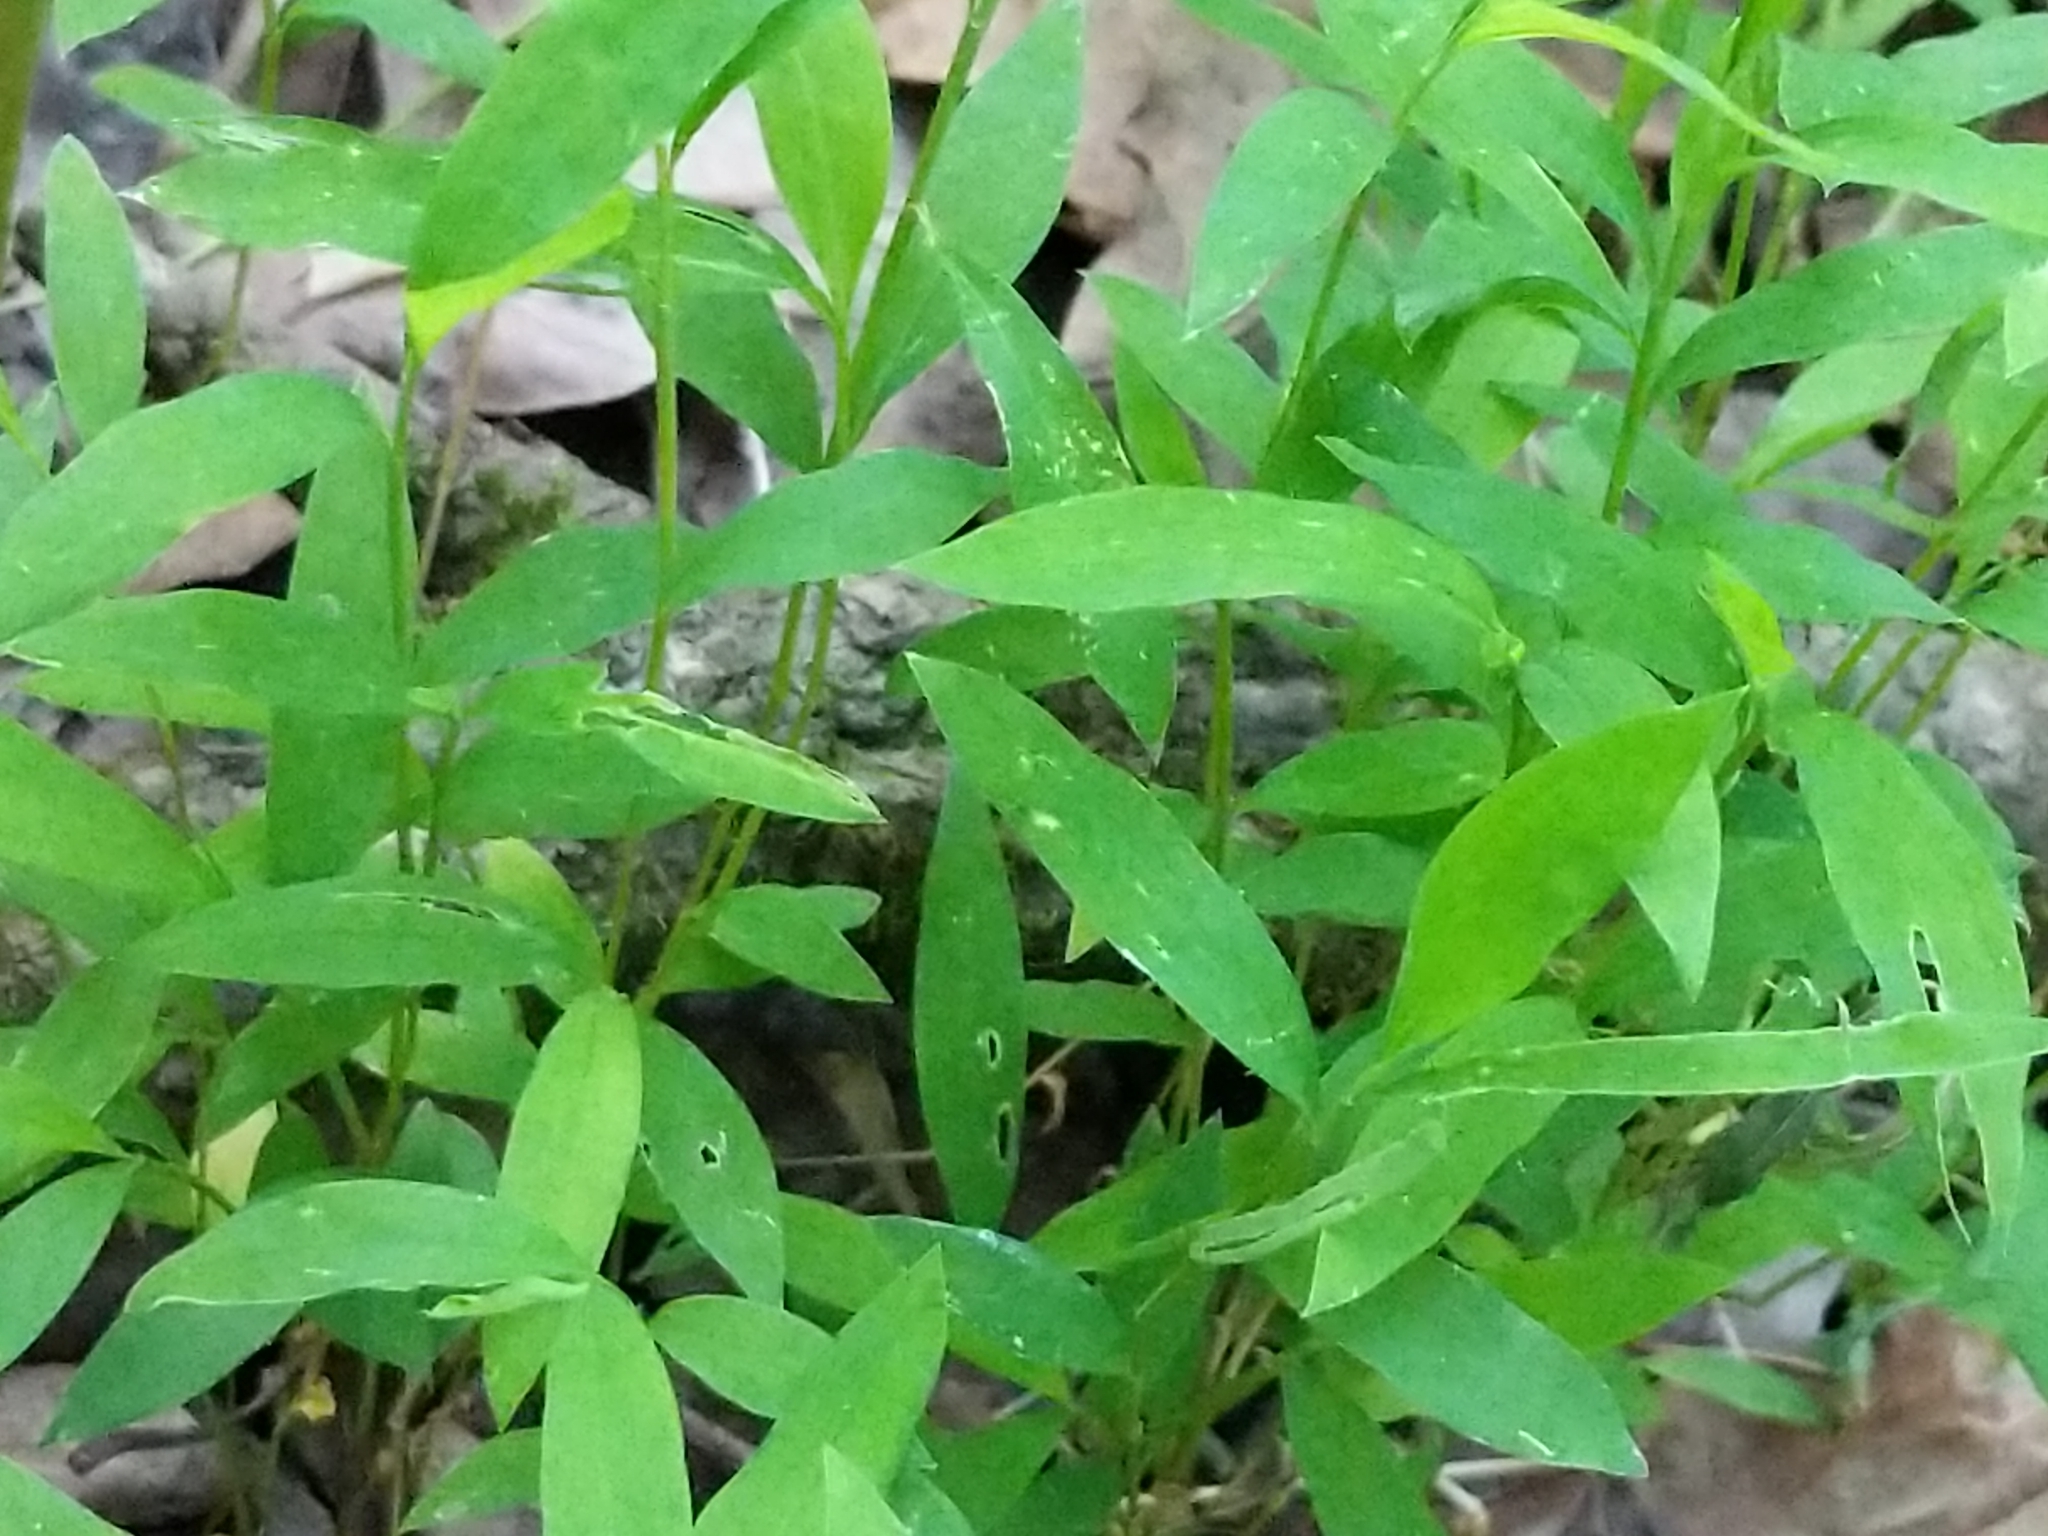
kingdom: Plantae
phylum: Tracheophyta
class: Liliopsida
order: Poales
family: Poaceae
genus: Microstegium
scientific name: Microstegium vimineum
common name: Japanese stiltgrass
